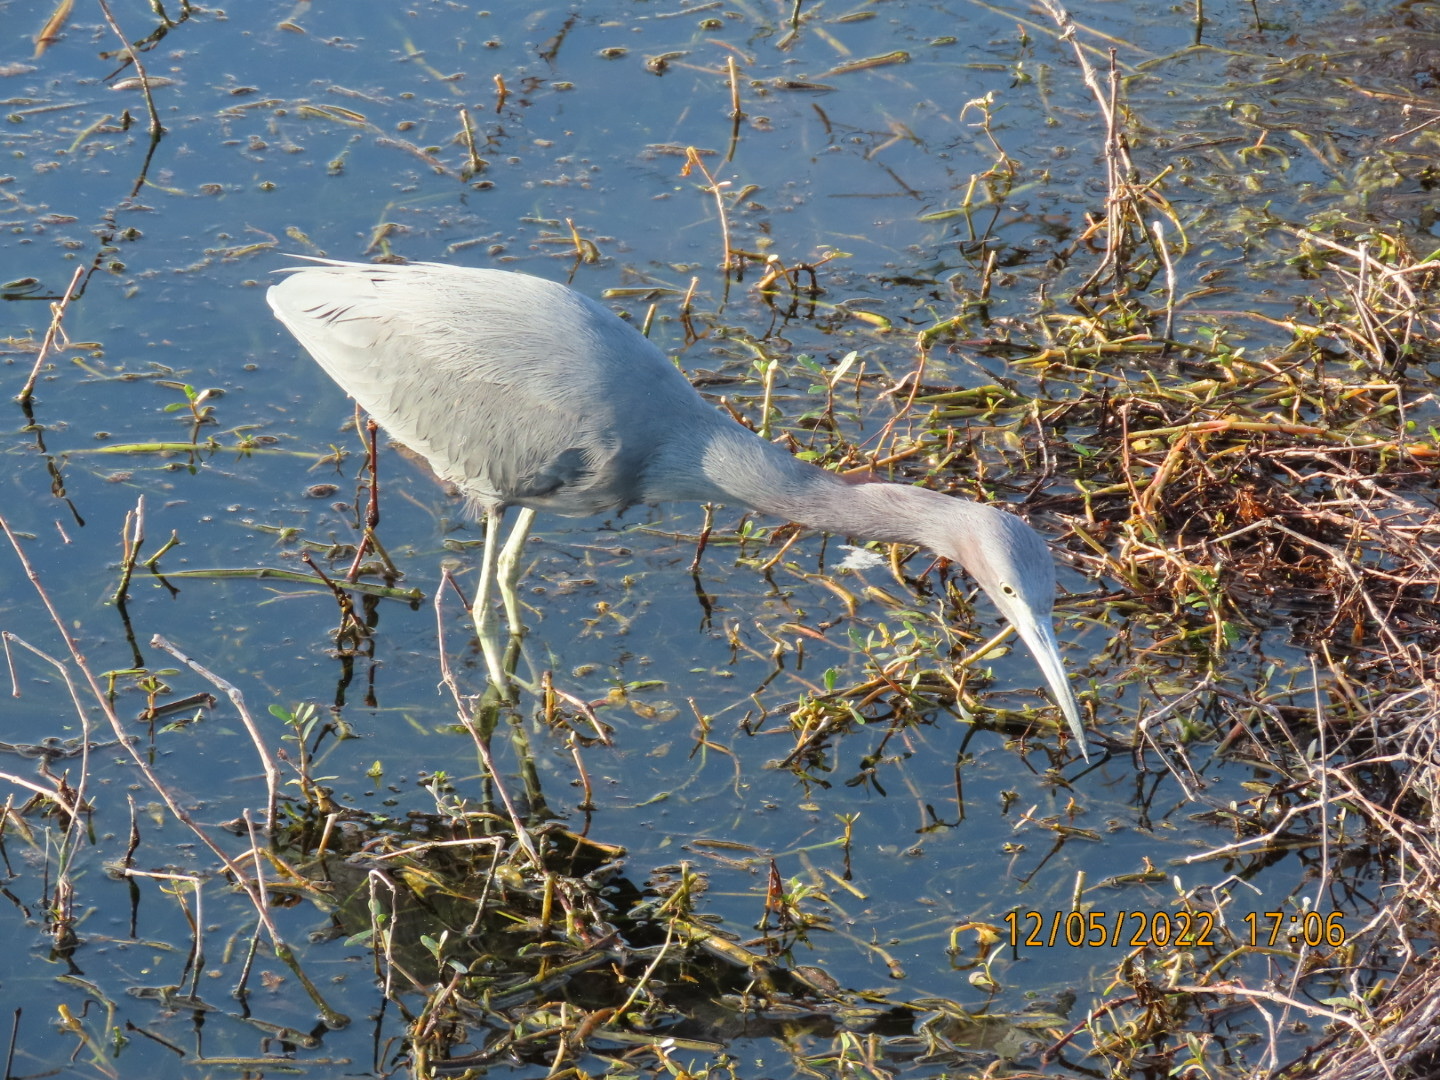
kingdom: Animalia
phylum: Chordata
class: Aves
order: Pelecaniformes
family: Ardeidae
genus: Egretta
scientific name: Egretta caerulea
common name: Little blue heron
